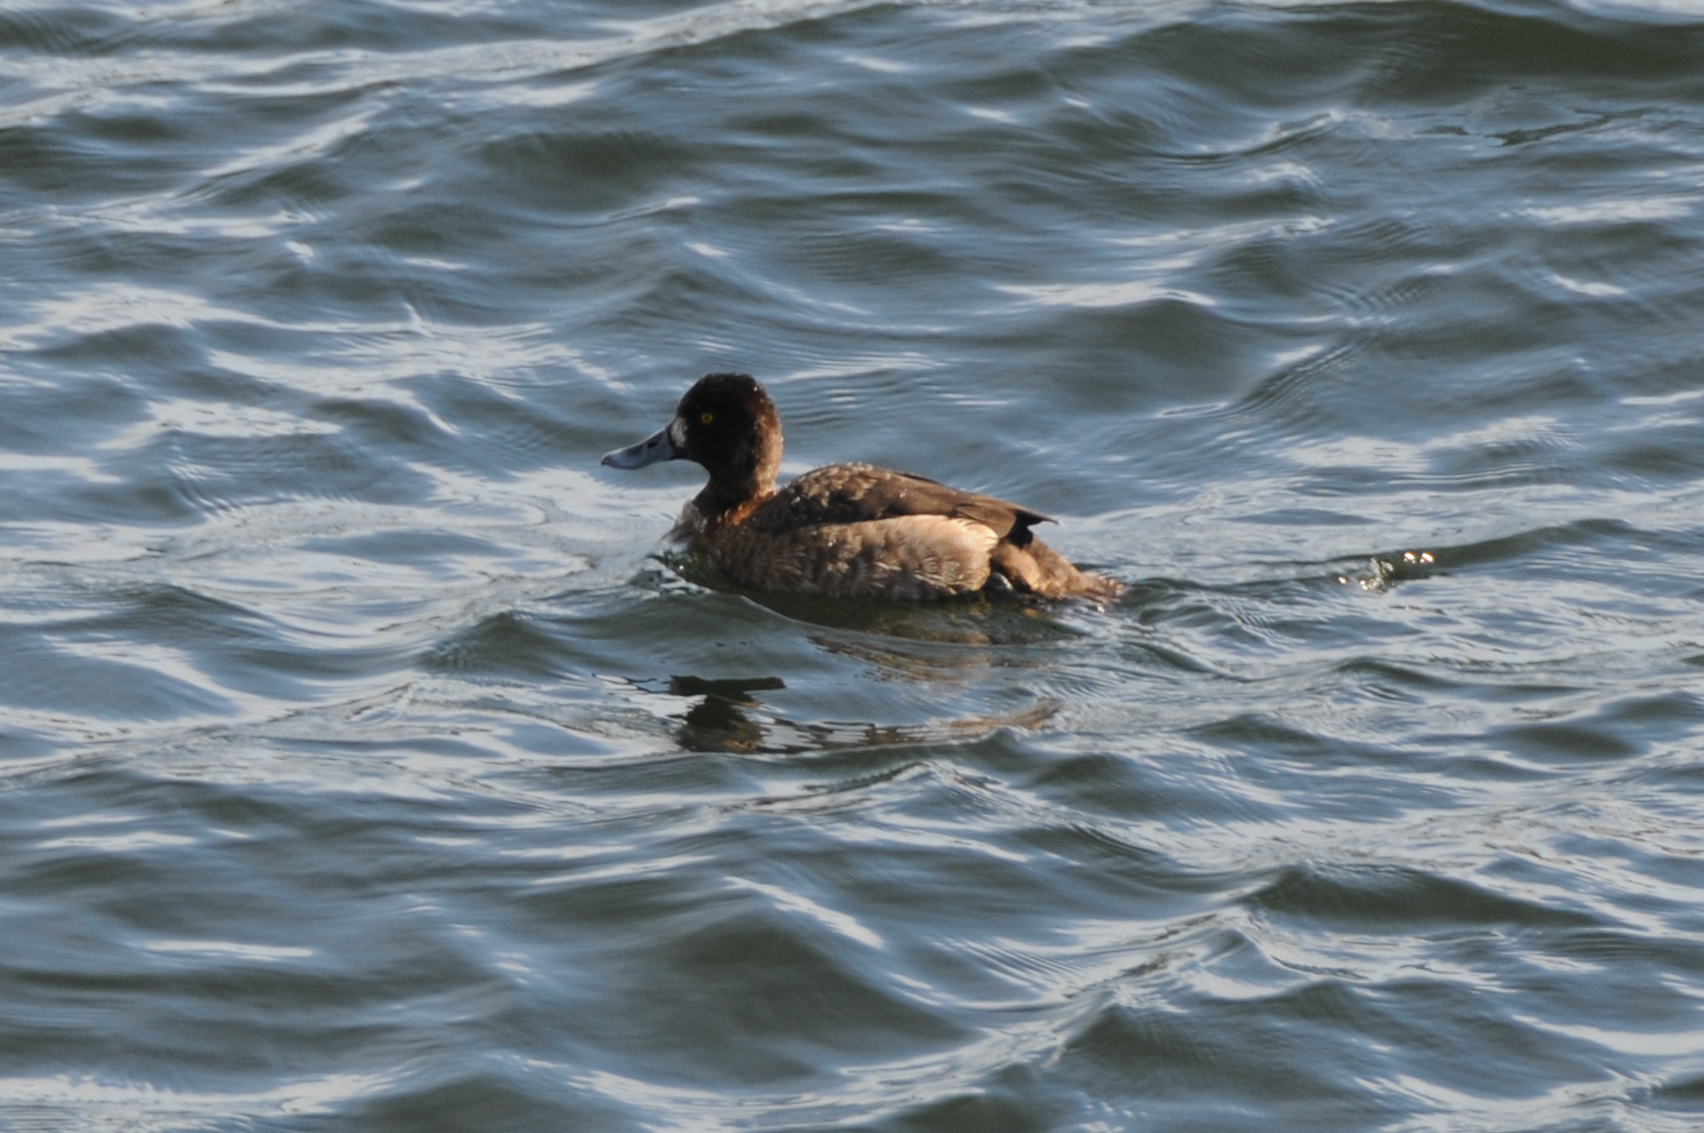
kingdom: Animalia
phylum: Chordata
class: Aves
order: Anseriformes
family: Anatidae
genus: Aythya
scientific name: Aythya affinis
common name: Lesser scaup
